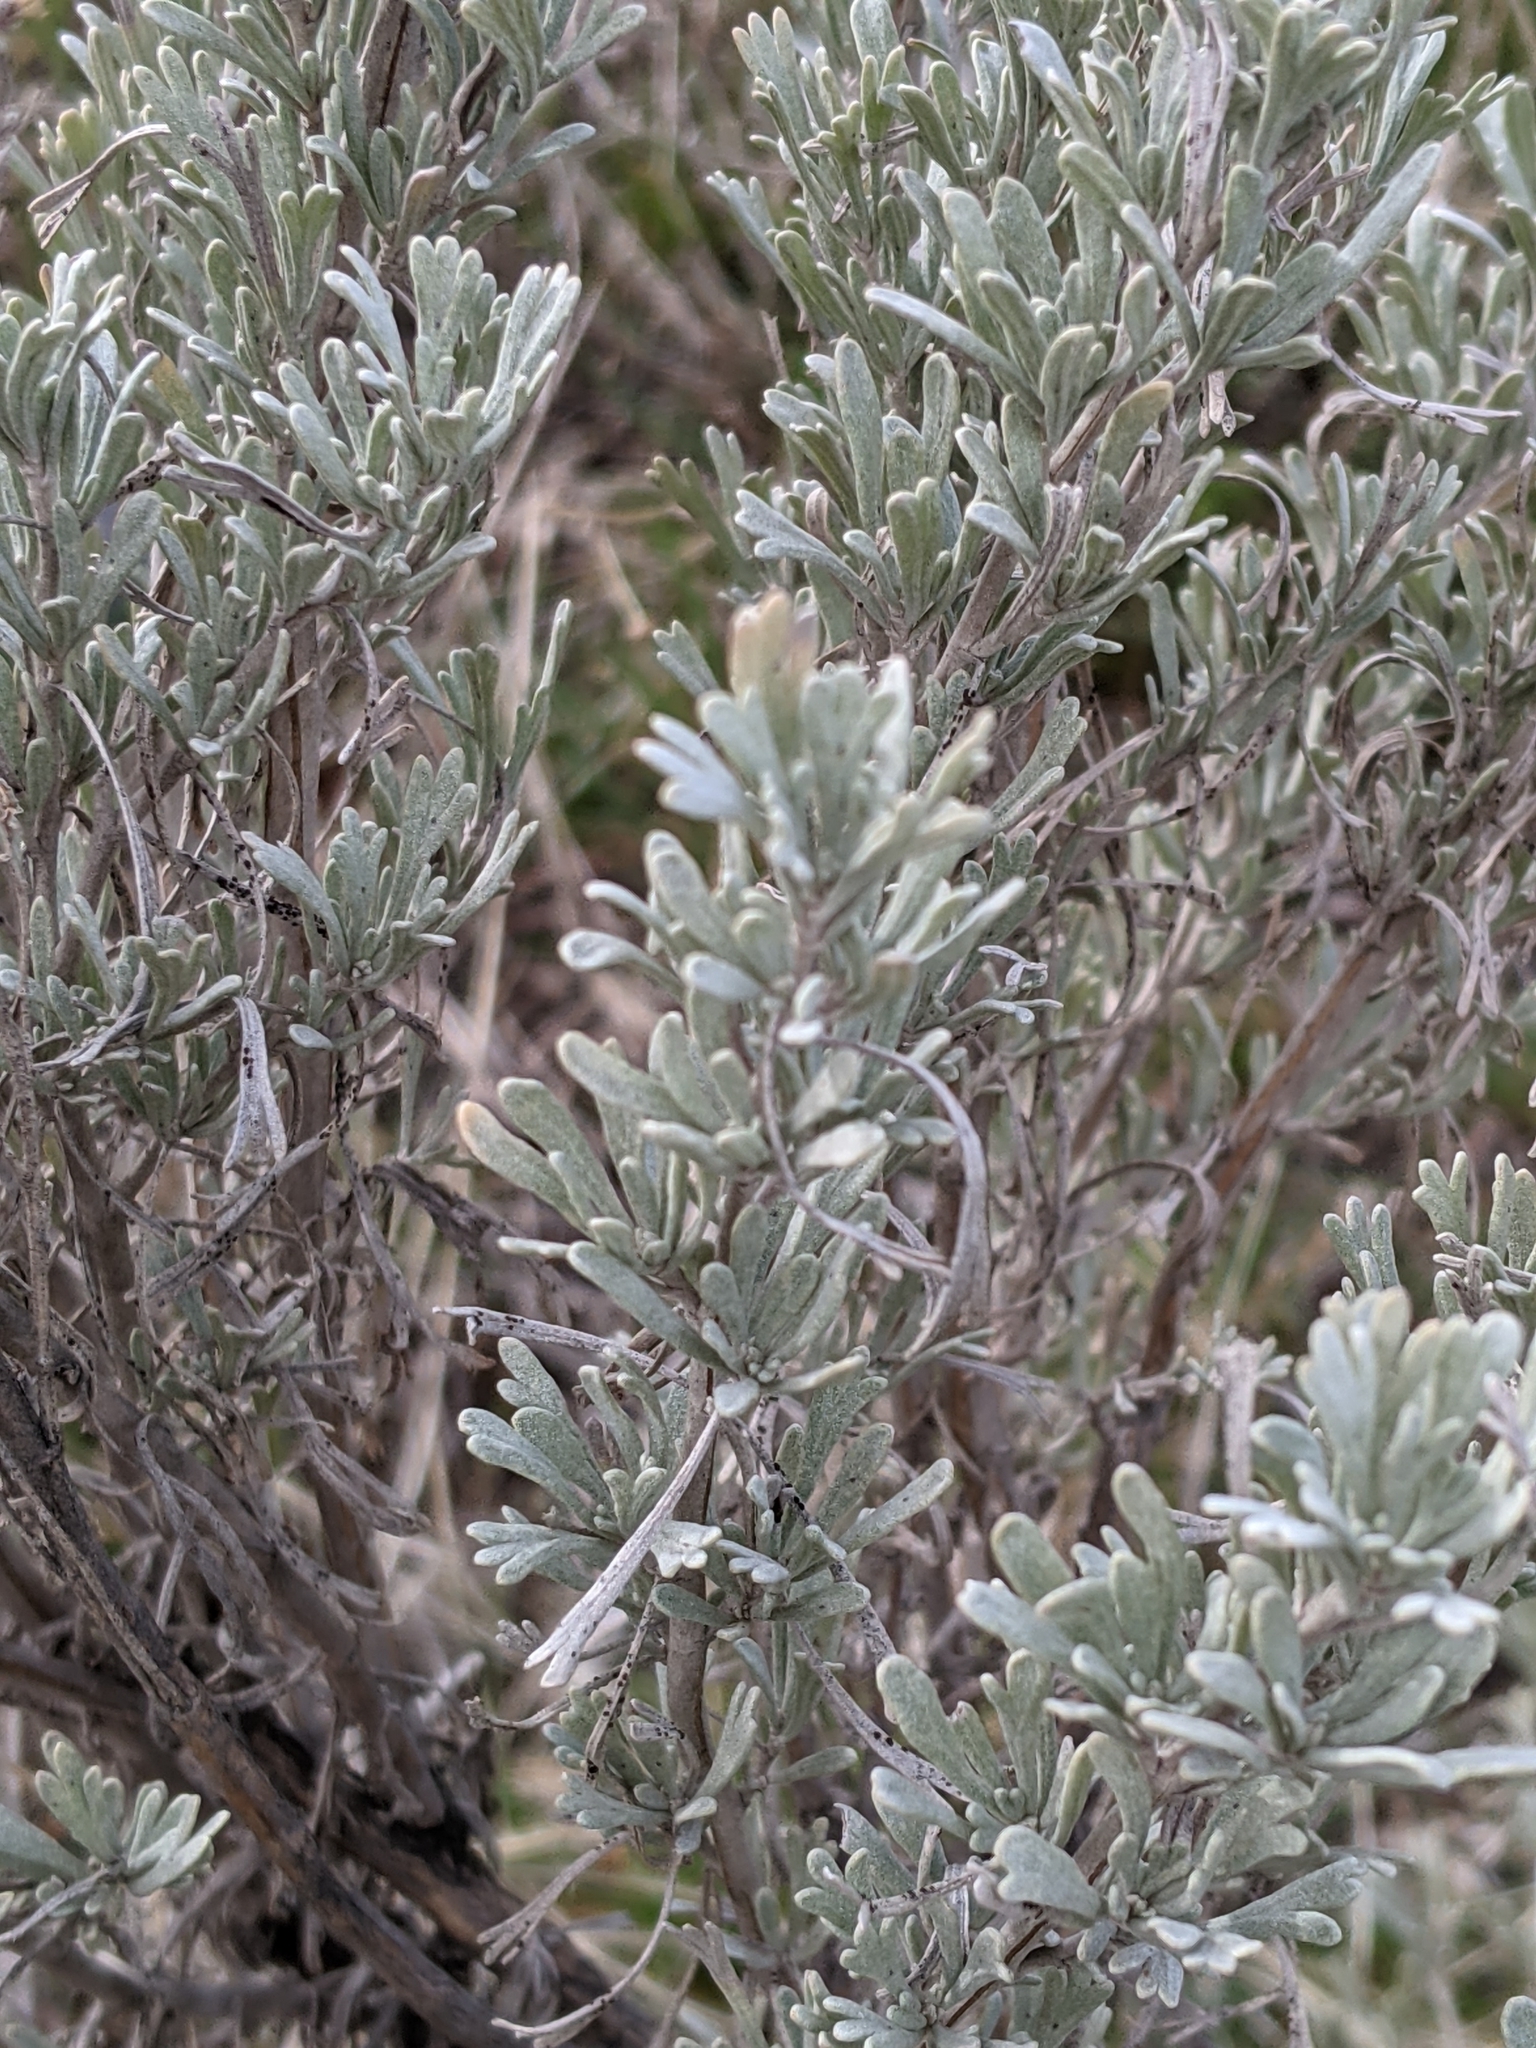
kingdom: Plantae
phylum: Tracheophyta
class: Magnoliopsida
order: Asterales
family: Asteraceae
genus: Artemisia
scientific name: Artemisia tridentata
